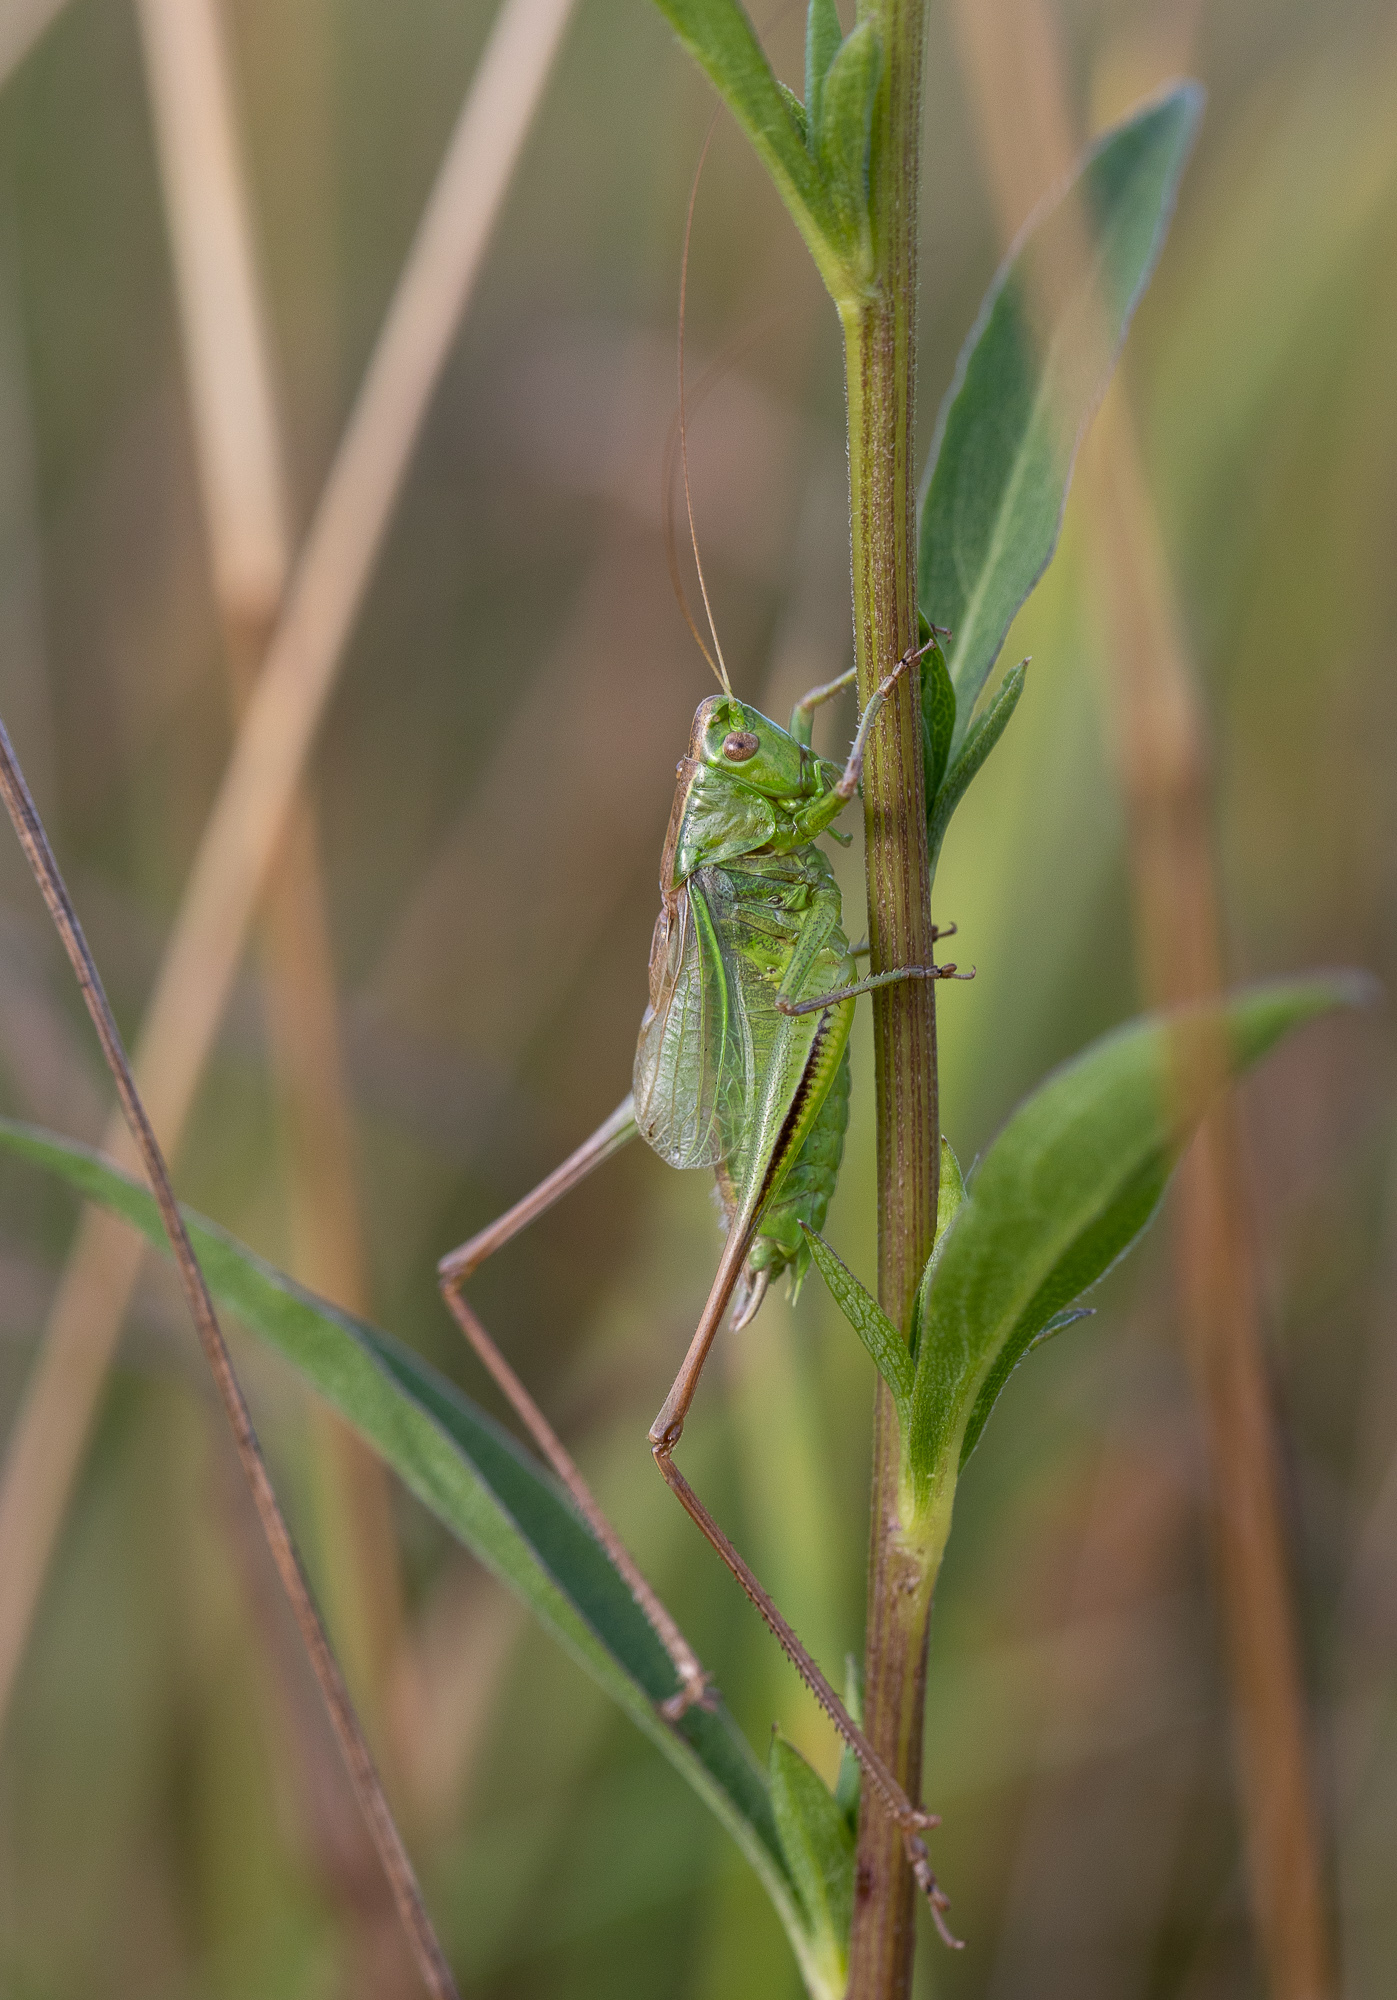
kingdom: Animalia
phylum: Arthropoda
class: Insecta
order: Orthoptera
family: Tettigoniidae
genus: Bicolorana
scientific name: Bicolorana bicolor
